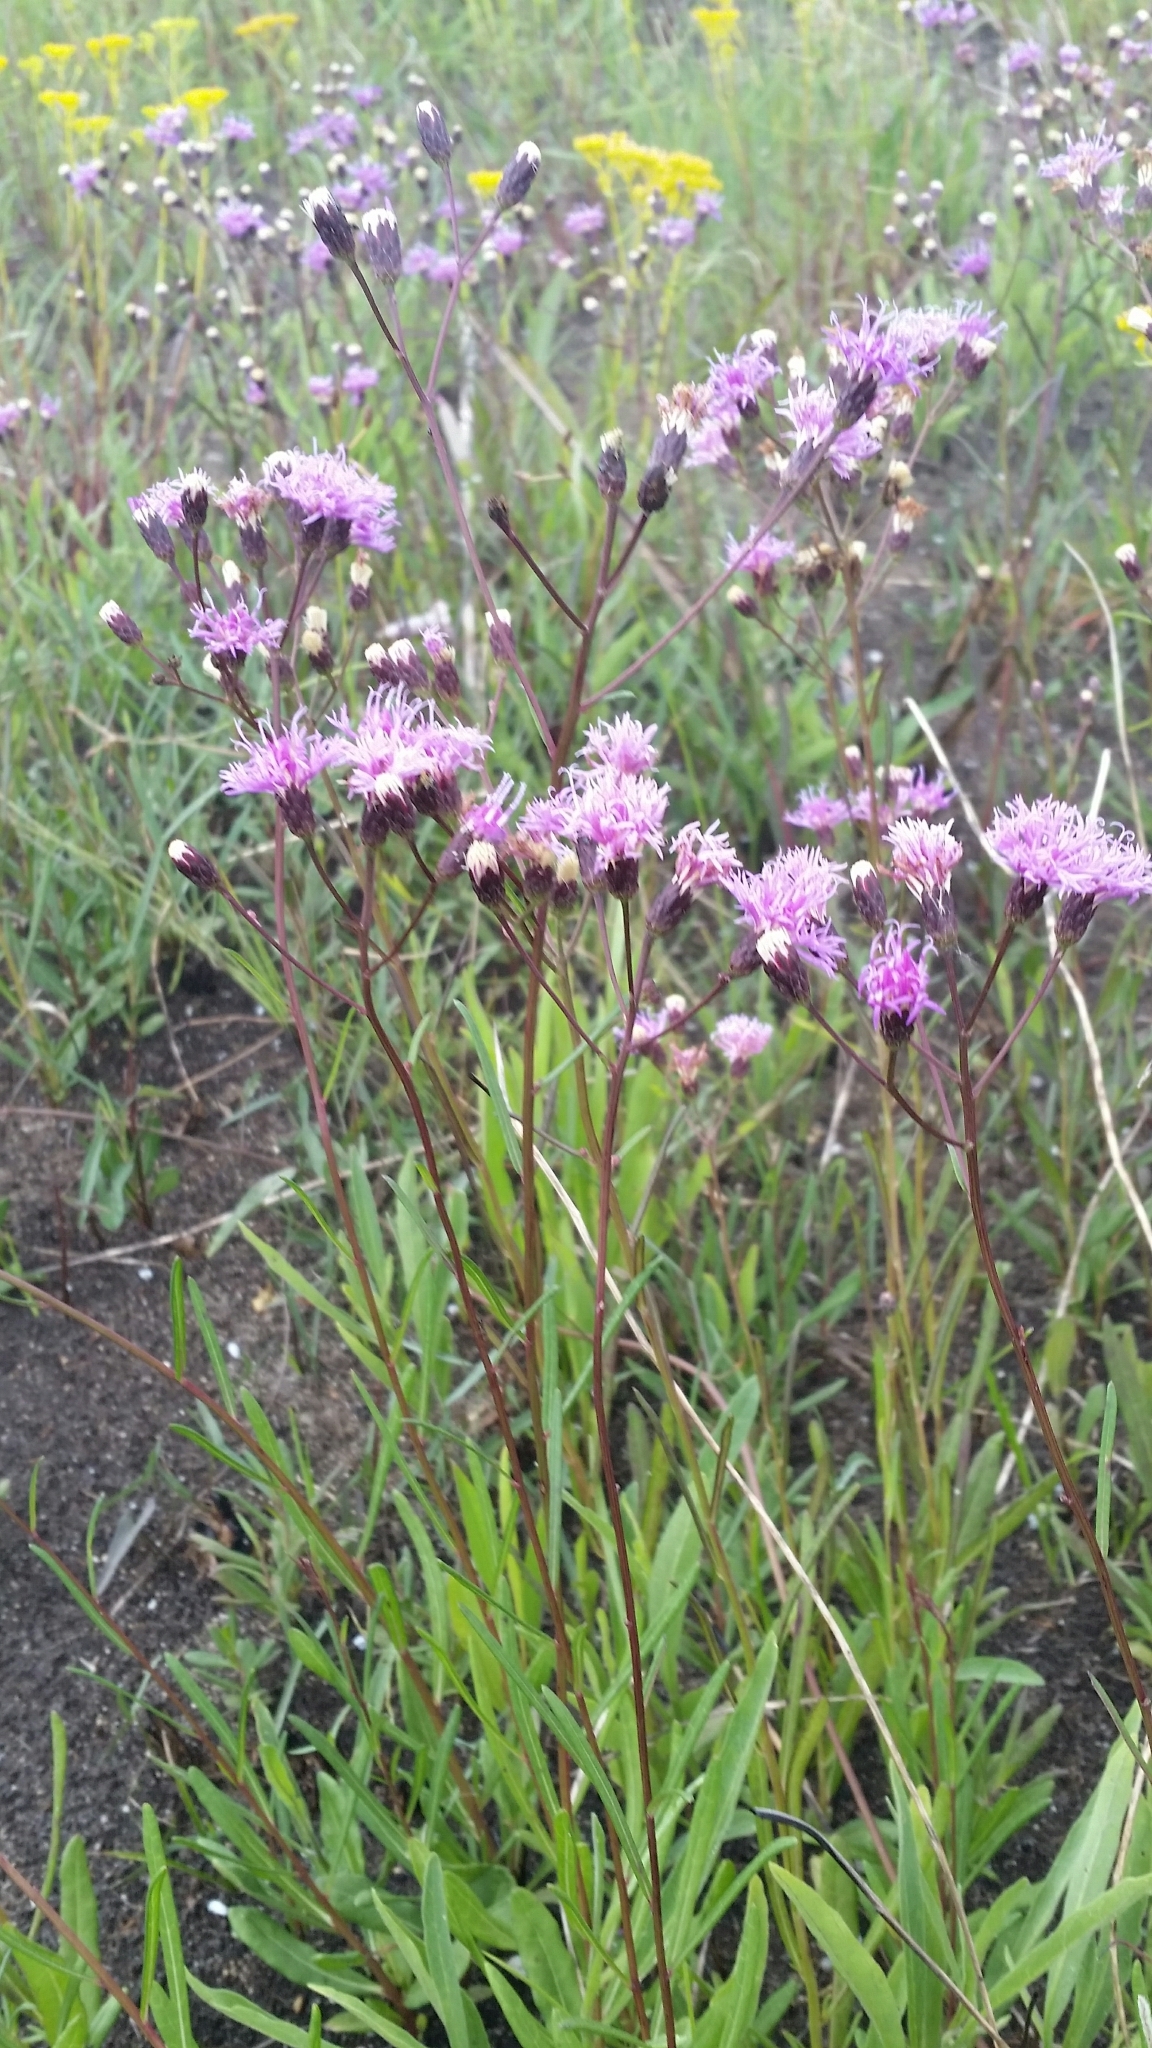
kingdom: Plantae
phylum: Tracheophyta
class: Magnoliopsida
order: Asterales
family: Asteraceae
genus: Vernonia
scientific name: Vernonia blodgettii
